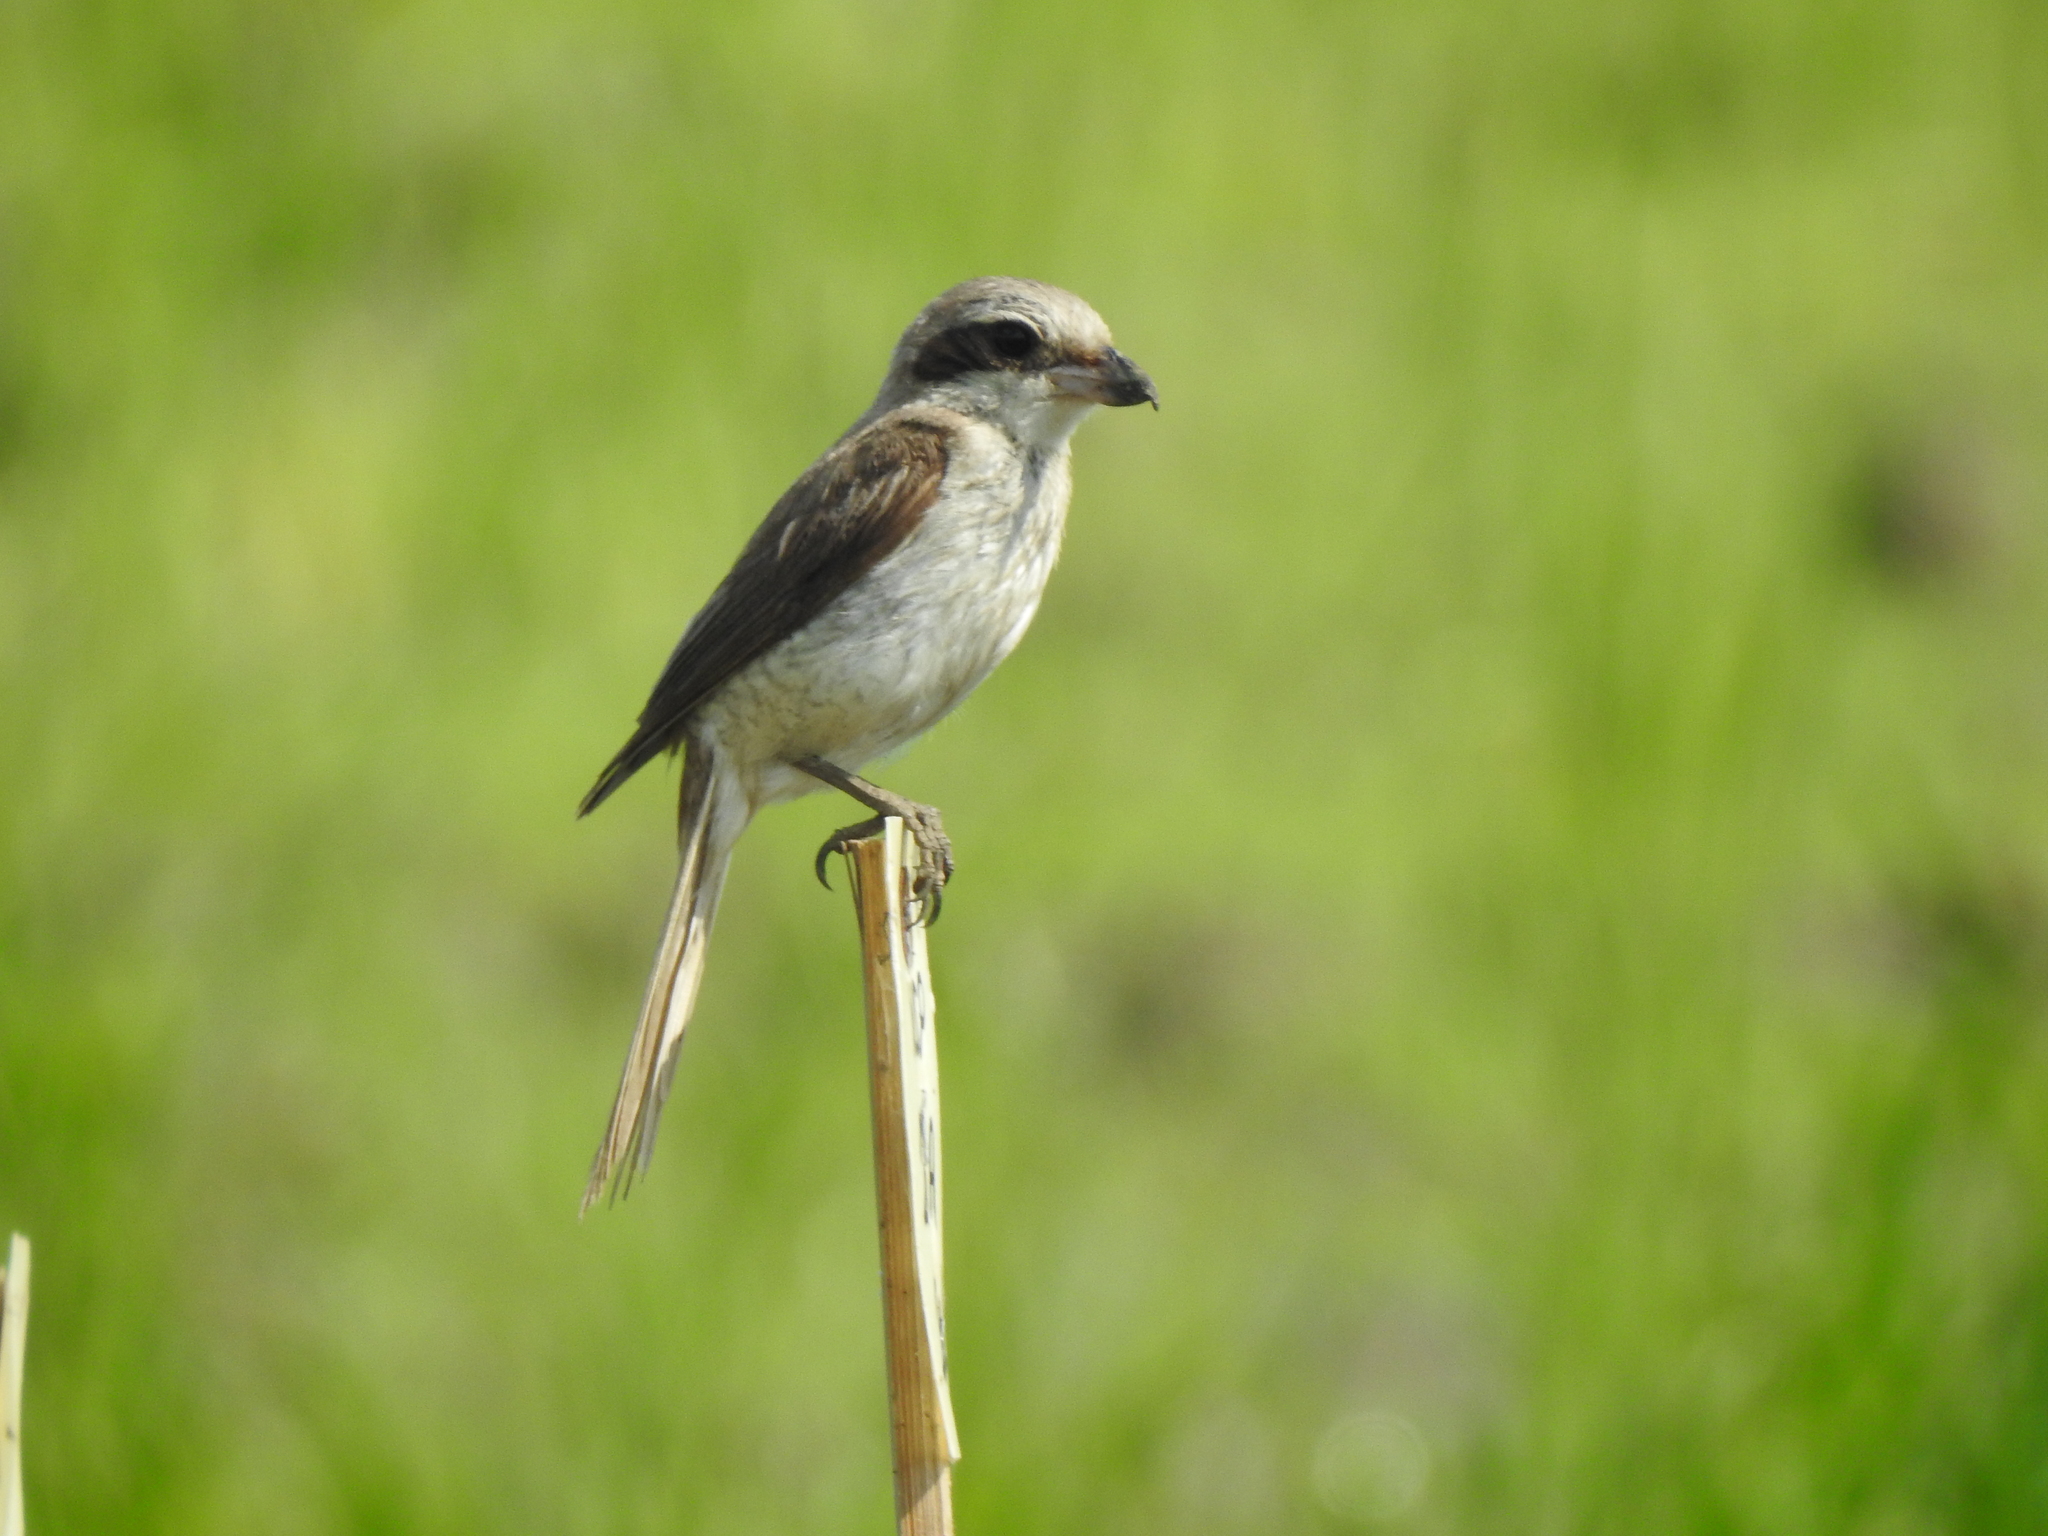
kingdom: Animalia
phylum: Chordata
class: Aves
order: Passeriformes
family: Laniidae
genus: Lanius
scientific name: Lanius cristatus
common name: Brown shrike
